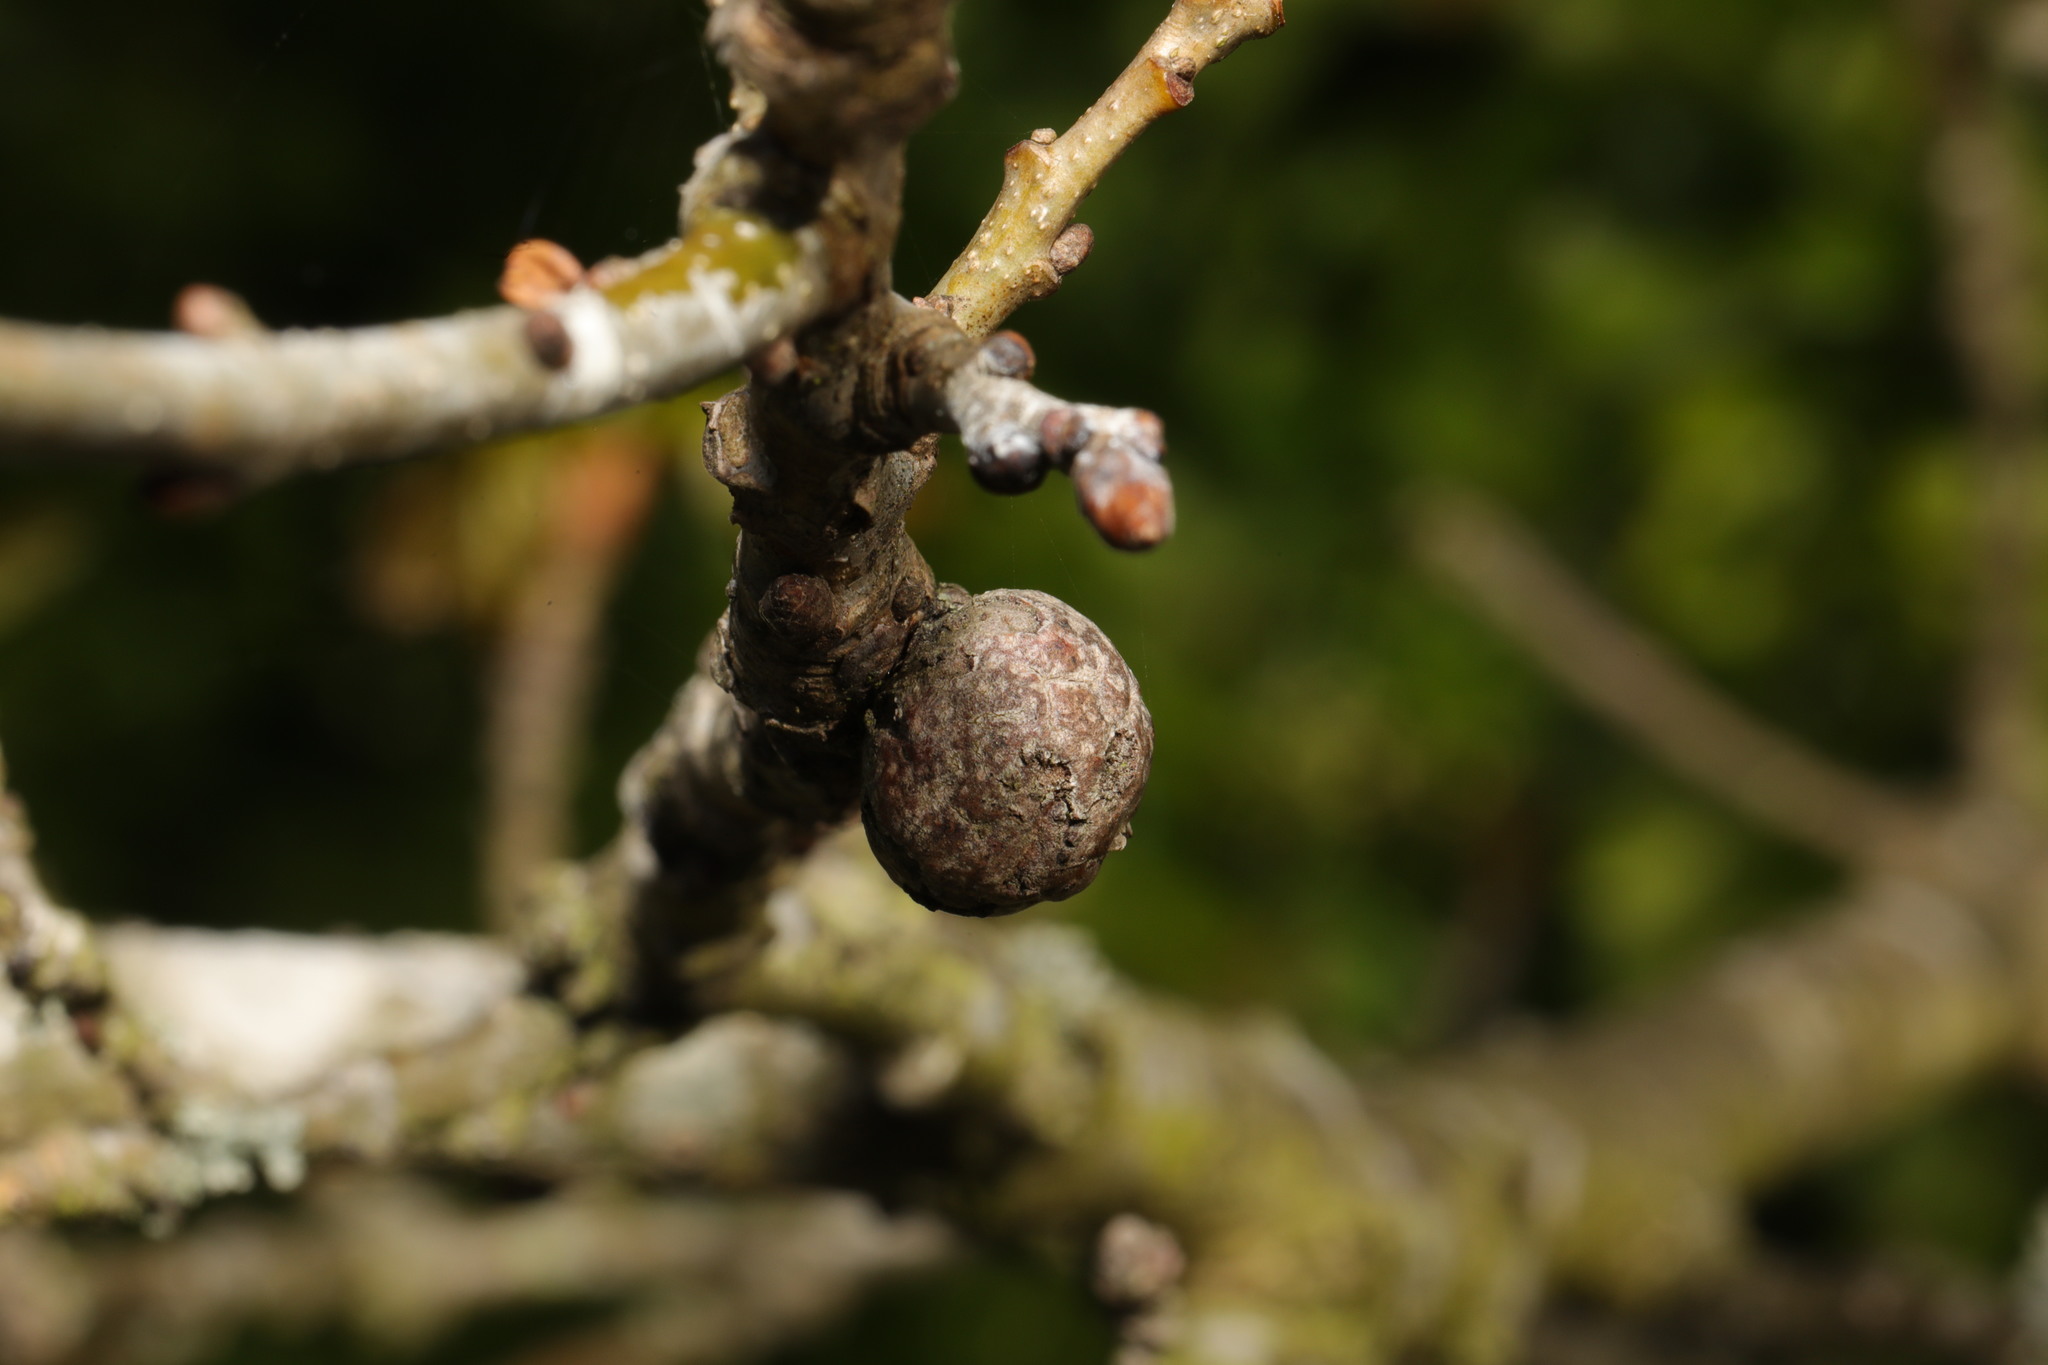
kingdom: Animalia
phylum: Arthropoda
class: Insecta
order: Hymenoptera
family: Cynipidae
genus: Andricus
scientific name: Andricus lignicolus
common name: Cola-nut gall
